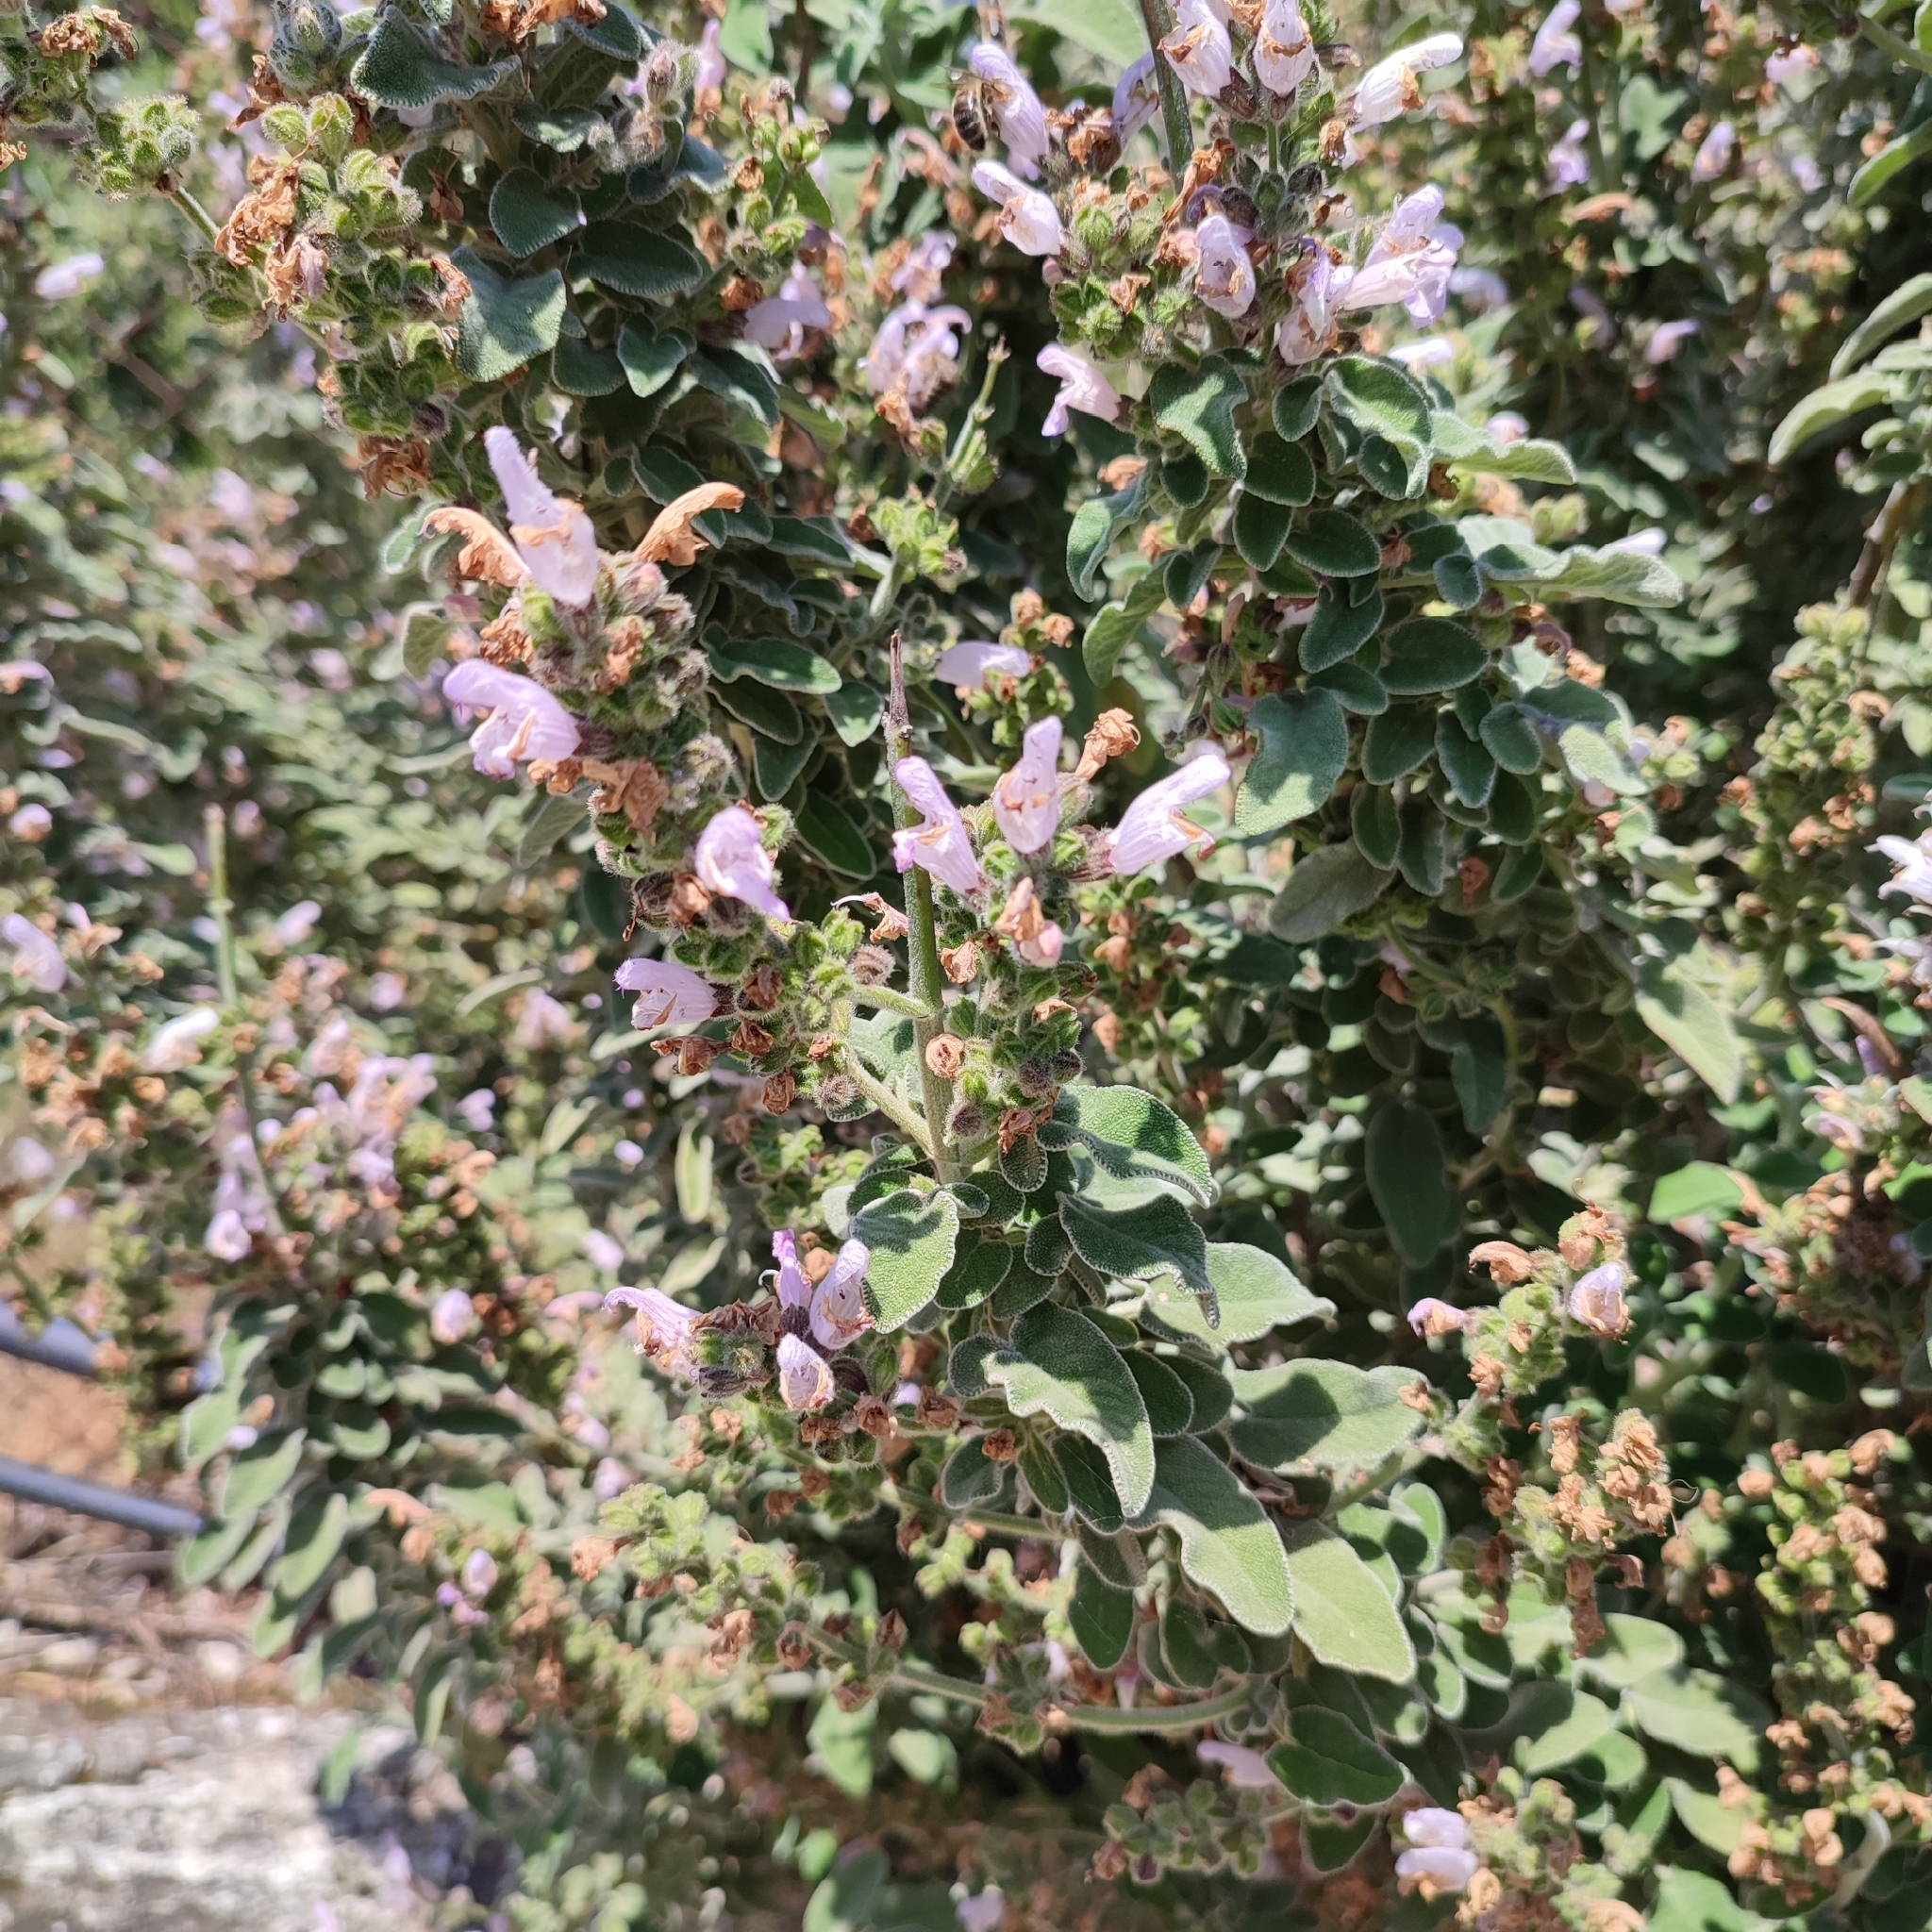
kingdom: Plantae
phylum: Tracheophyta
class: Magnoliopsida
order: Lamiales
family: Lamiaceae
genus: Salvia
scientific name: Salvia fruticosa
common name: Greek sage
